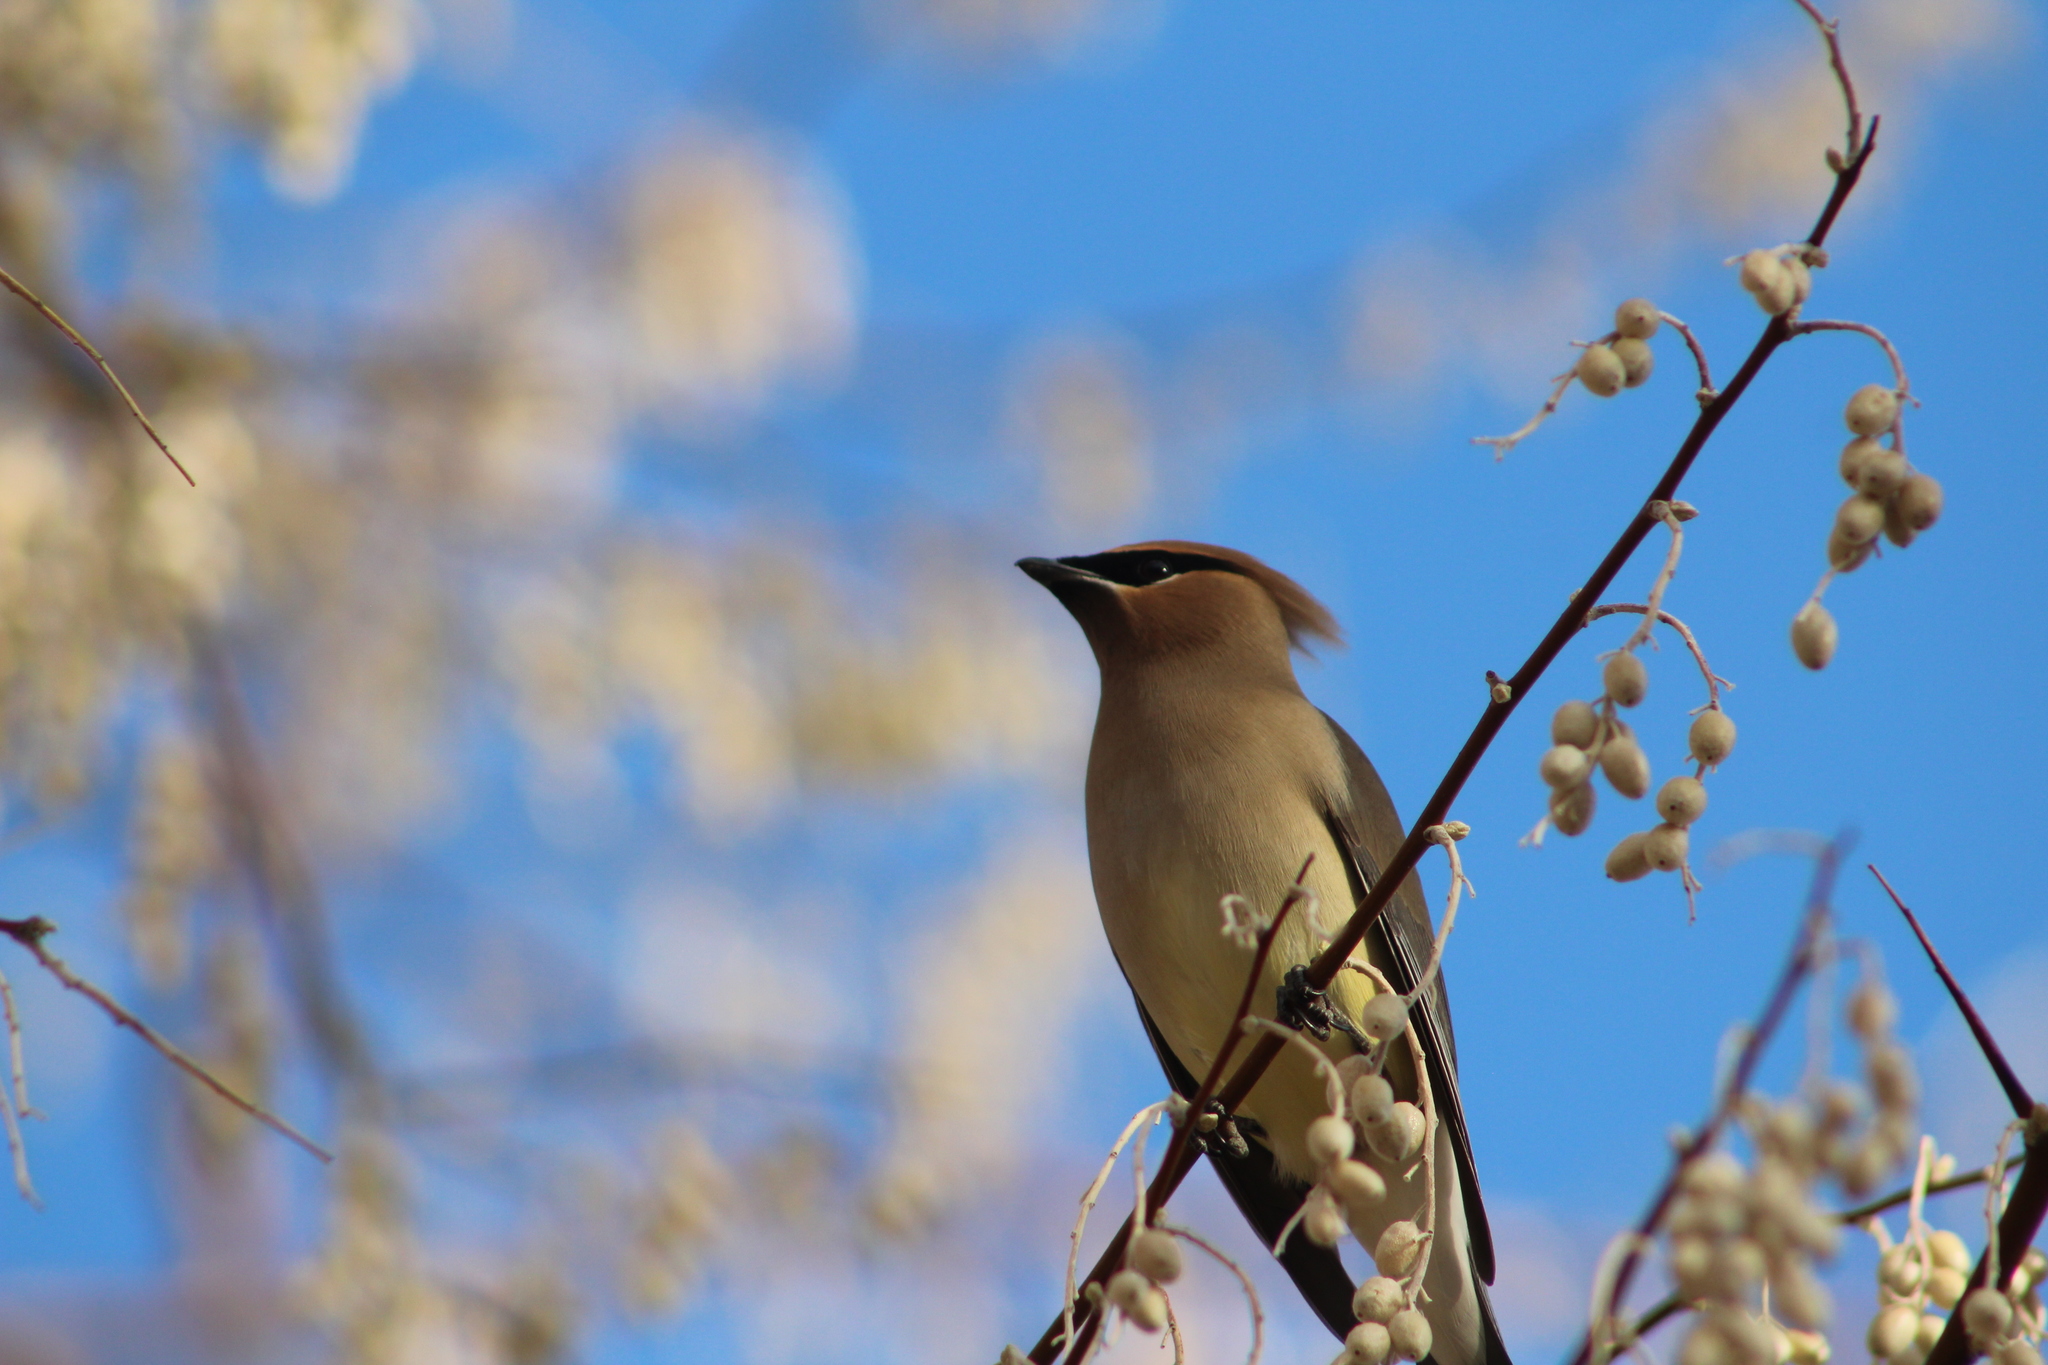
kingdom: Animalia
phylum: Chordata
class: Aves
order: Passeriformes
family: Bombycillidae
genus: Bombycilla
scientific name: Bombycilla cedrorum
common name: Cedar waxwing
